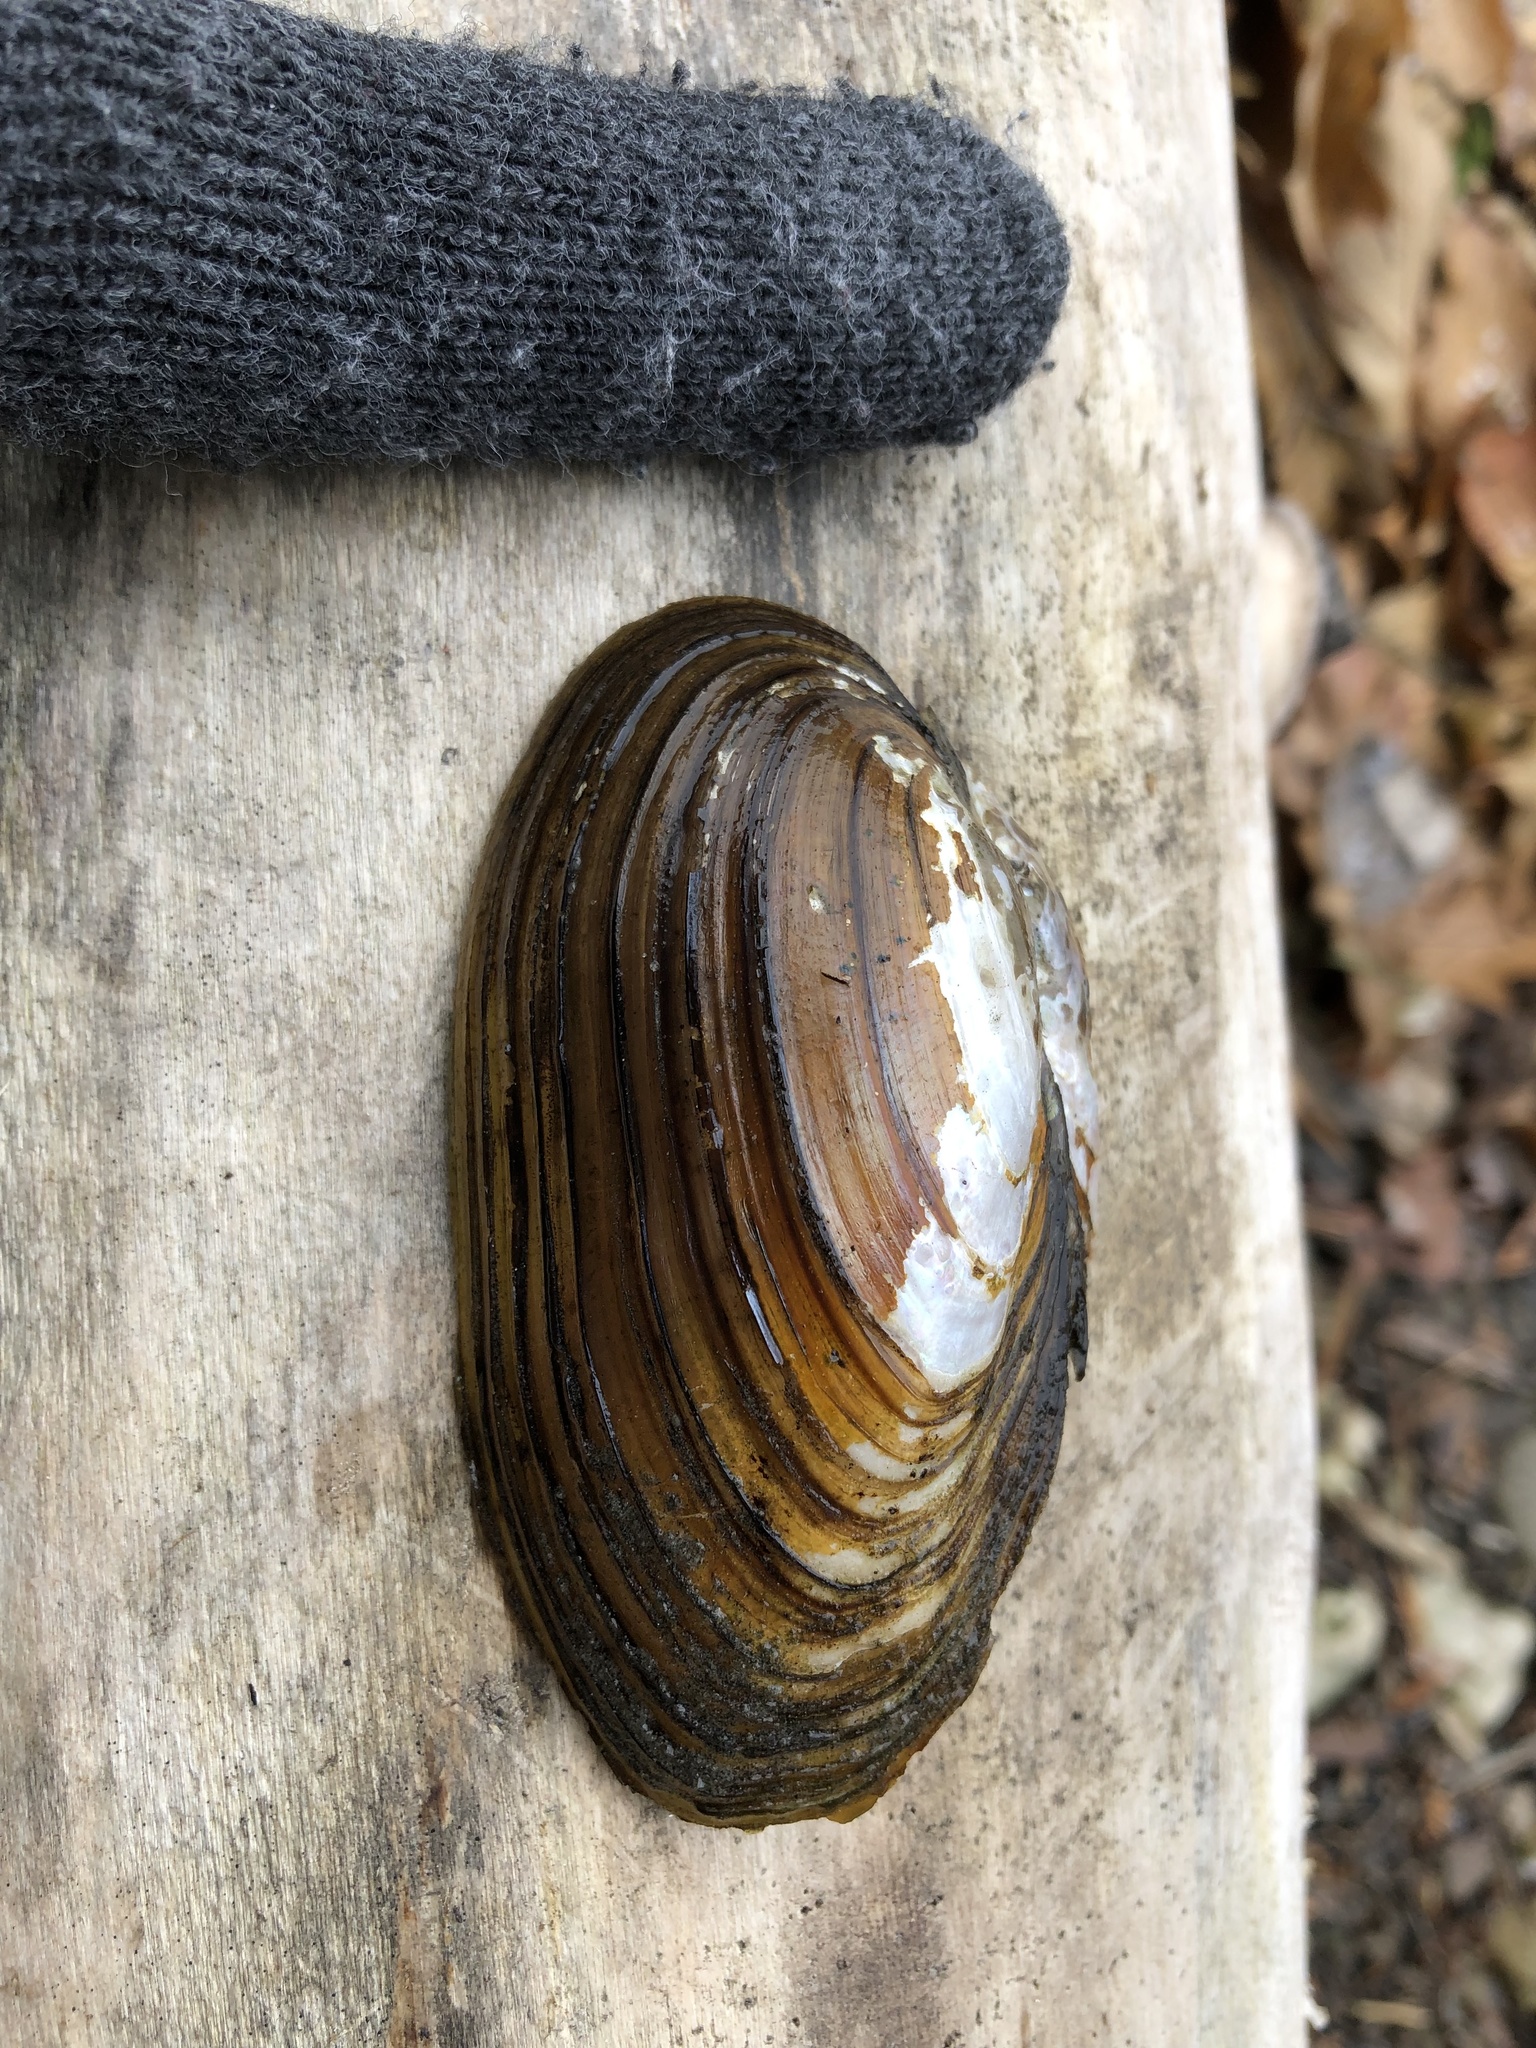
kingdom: Animalia
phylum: Mollusca
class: Bivalvia
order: Unionida
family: Unionidae
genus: Anodontoides
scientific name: Anodontoides ferussacianus
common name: Cylindrical papershell
